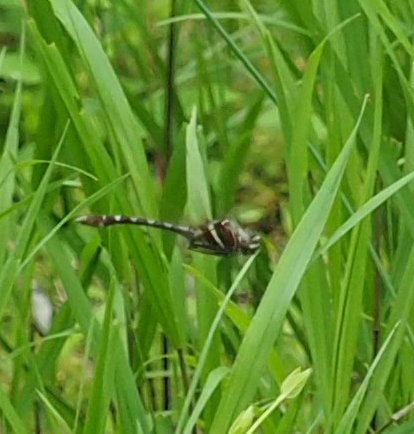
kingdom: Animalia
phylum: Arthropoda
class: Insecta
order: Odonata
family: Macromiidae
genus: Didymops
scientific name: Didymops transversa
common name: Stream cruiser
